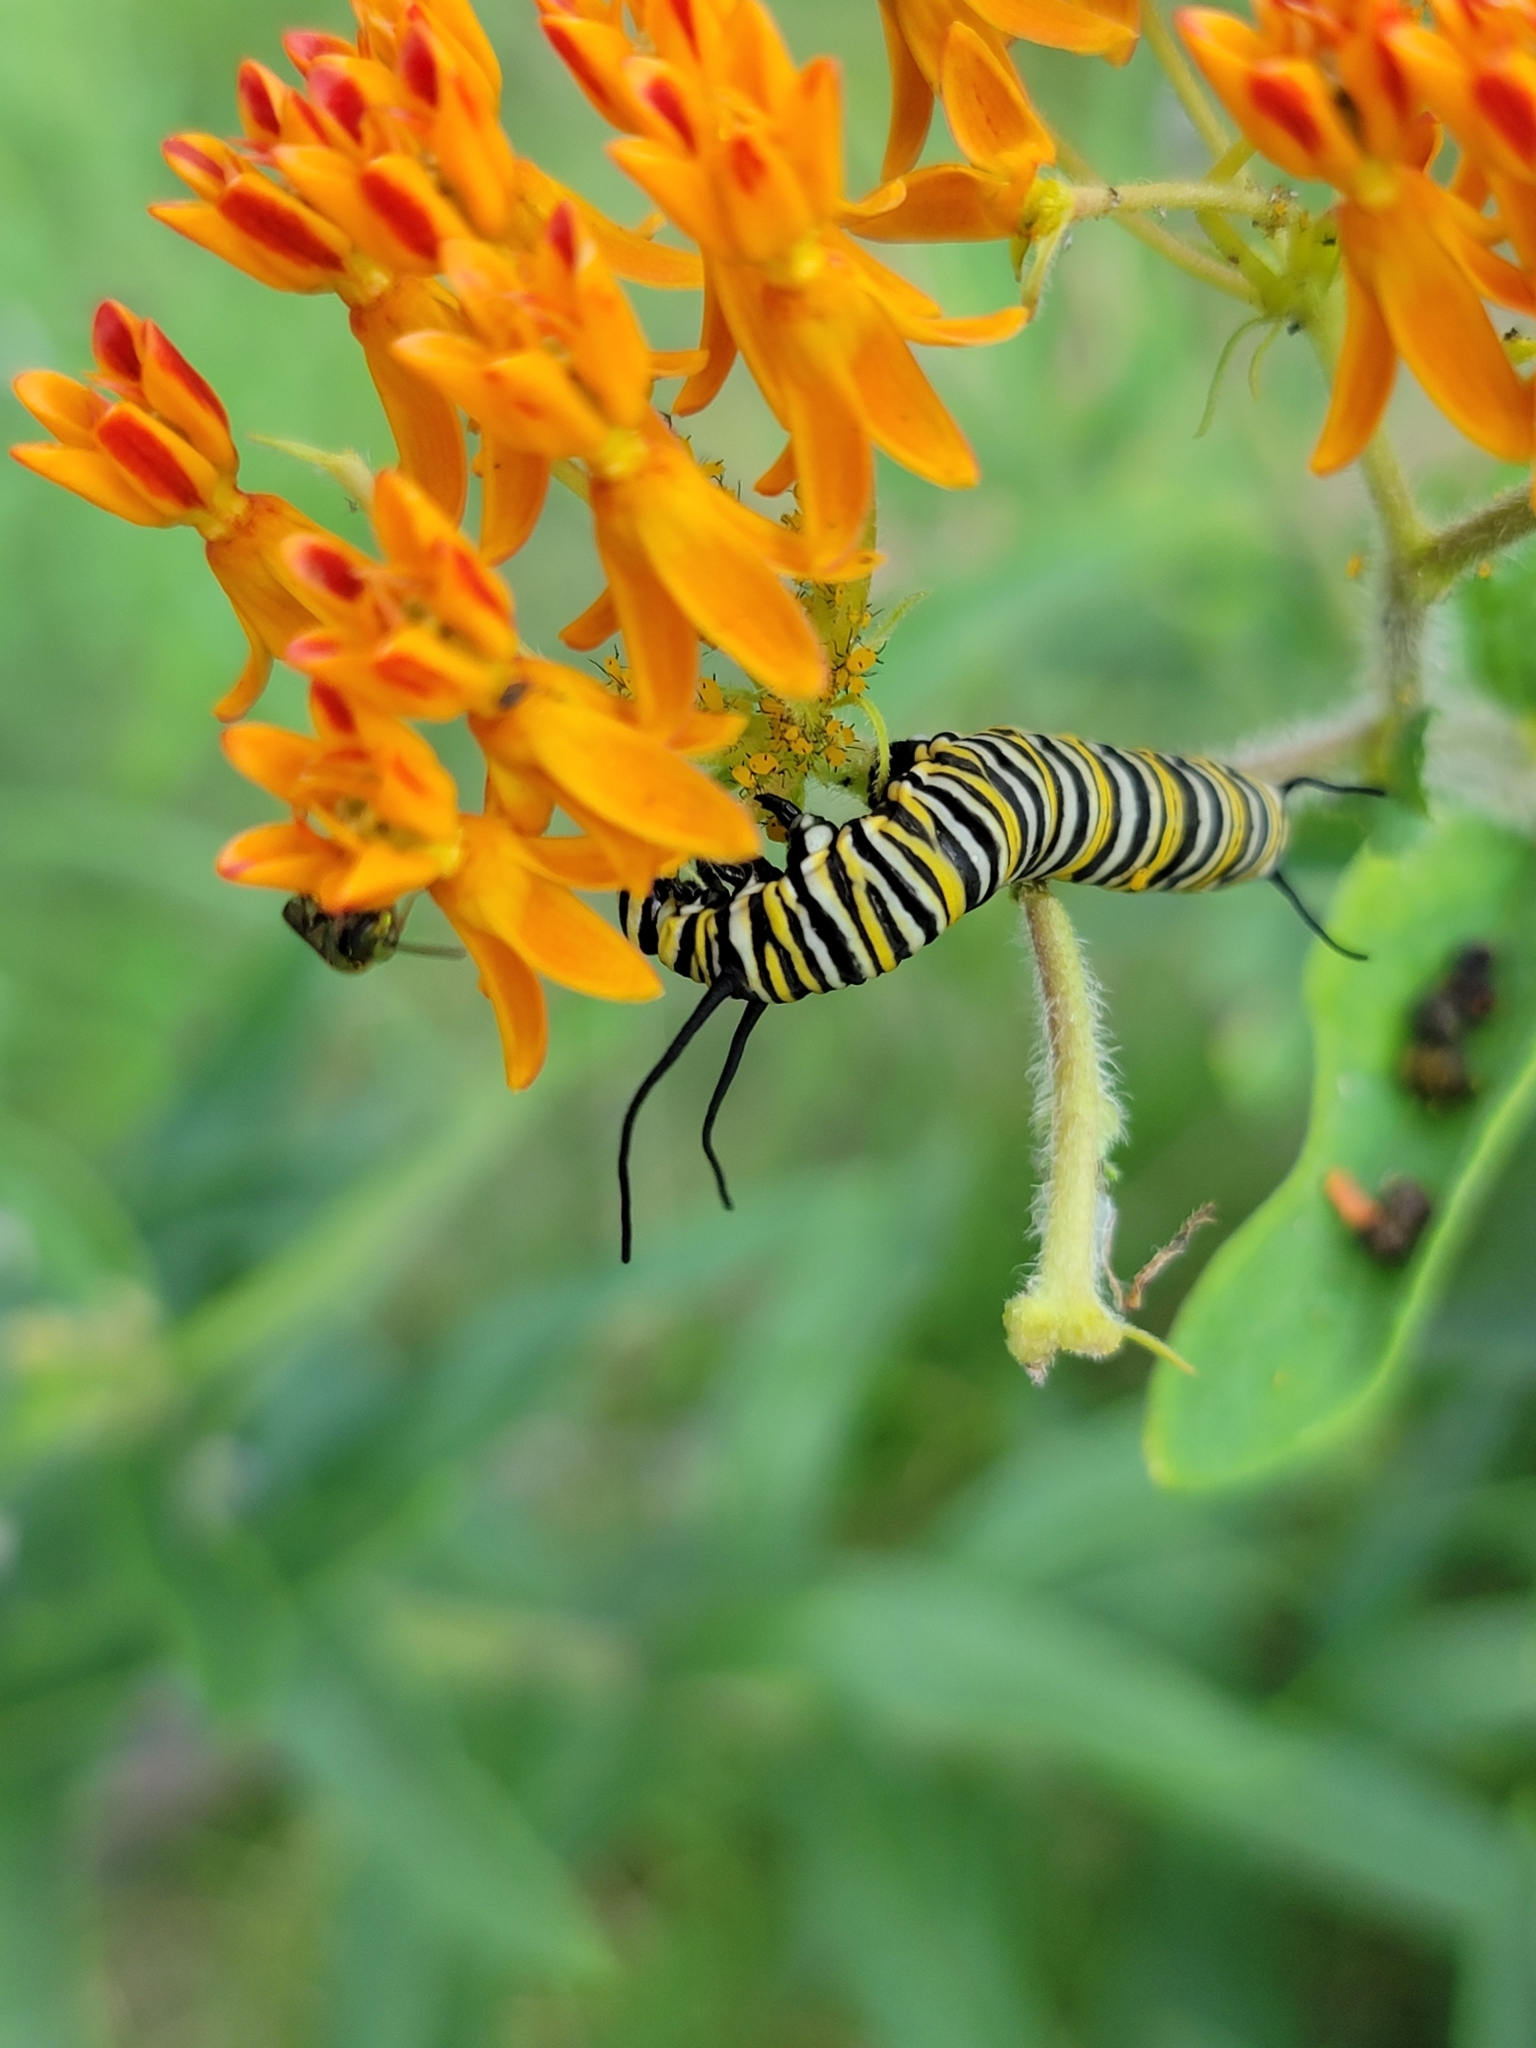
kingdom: Animalia
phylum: Arthropoda
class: Insecta
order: Lepidoptera
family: Nymphalidae
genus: Danaus
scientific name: Danaus plexippus
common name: Monarch
